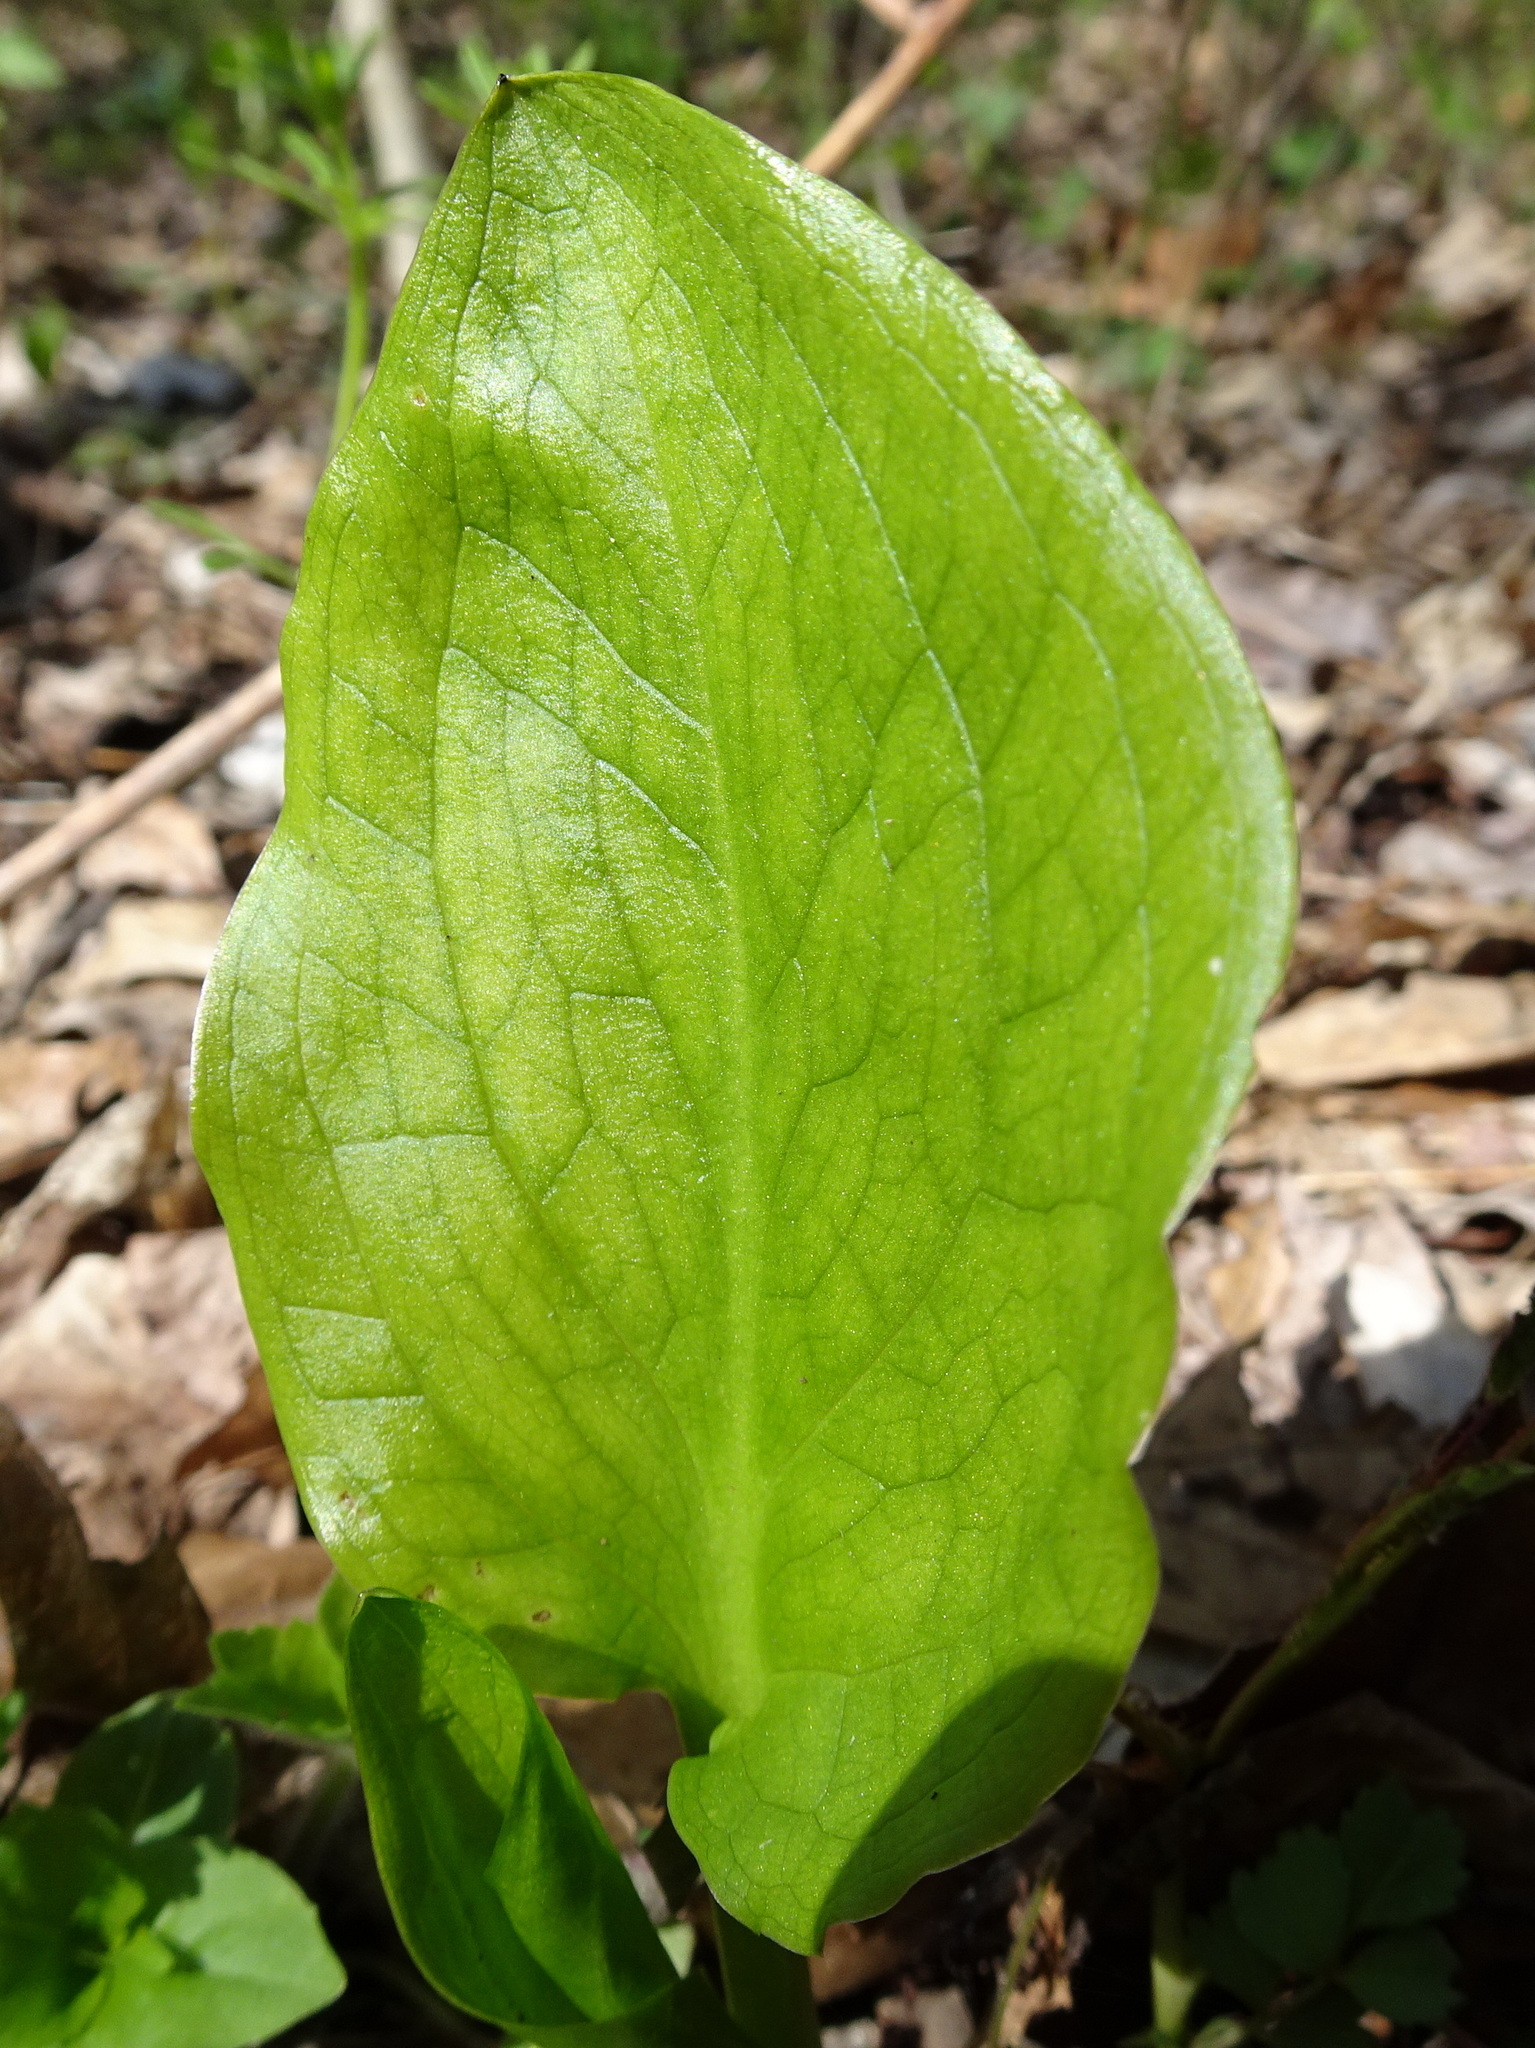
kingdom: Plantae
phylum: Tracheophyta
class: Liliopsida
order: Alismatales
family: Araceae
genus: Symplocarpus
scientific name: Symplocarpus foetidus
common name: Eastern skunk cabbage
